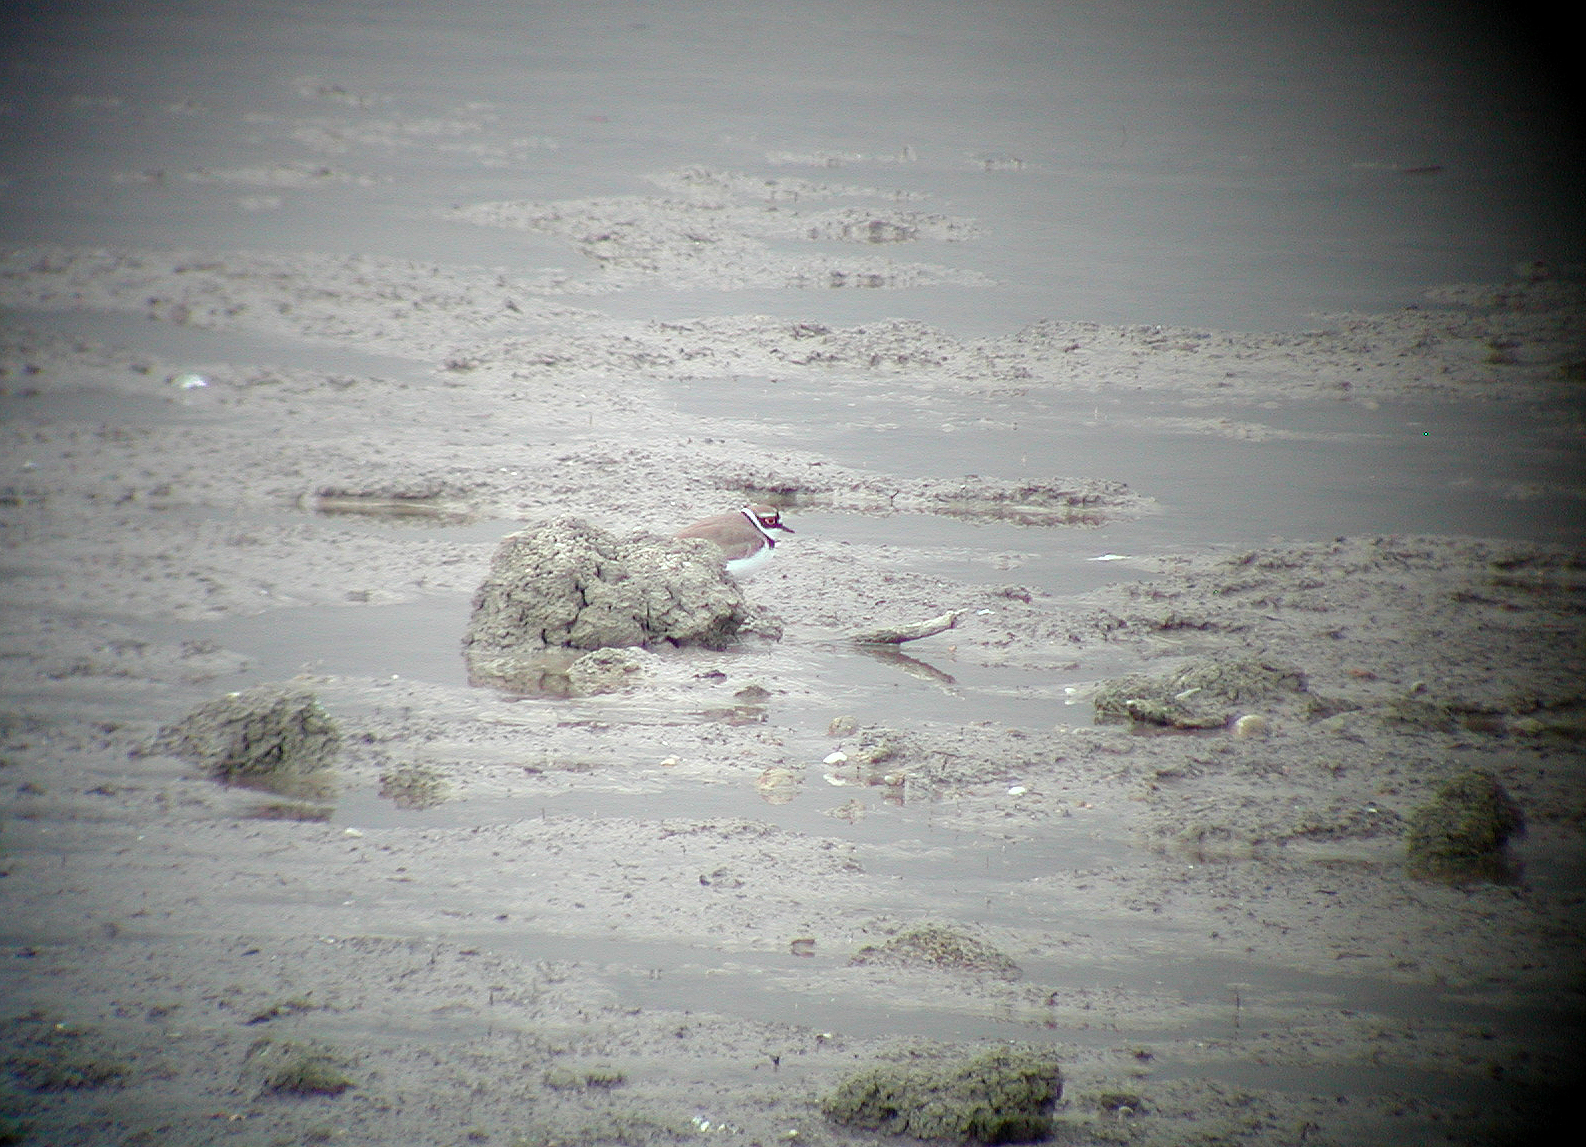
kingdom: Animalia
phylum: Chordata
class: Aves
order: Charadriiformes
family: Charadriidae
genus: Charadrius
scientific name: Charadrius dubius
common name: Little ringed plover
